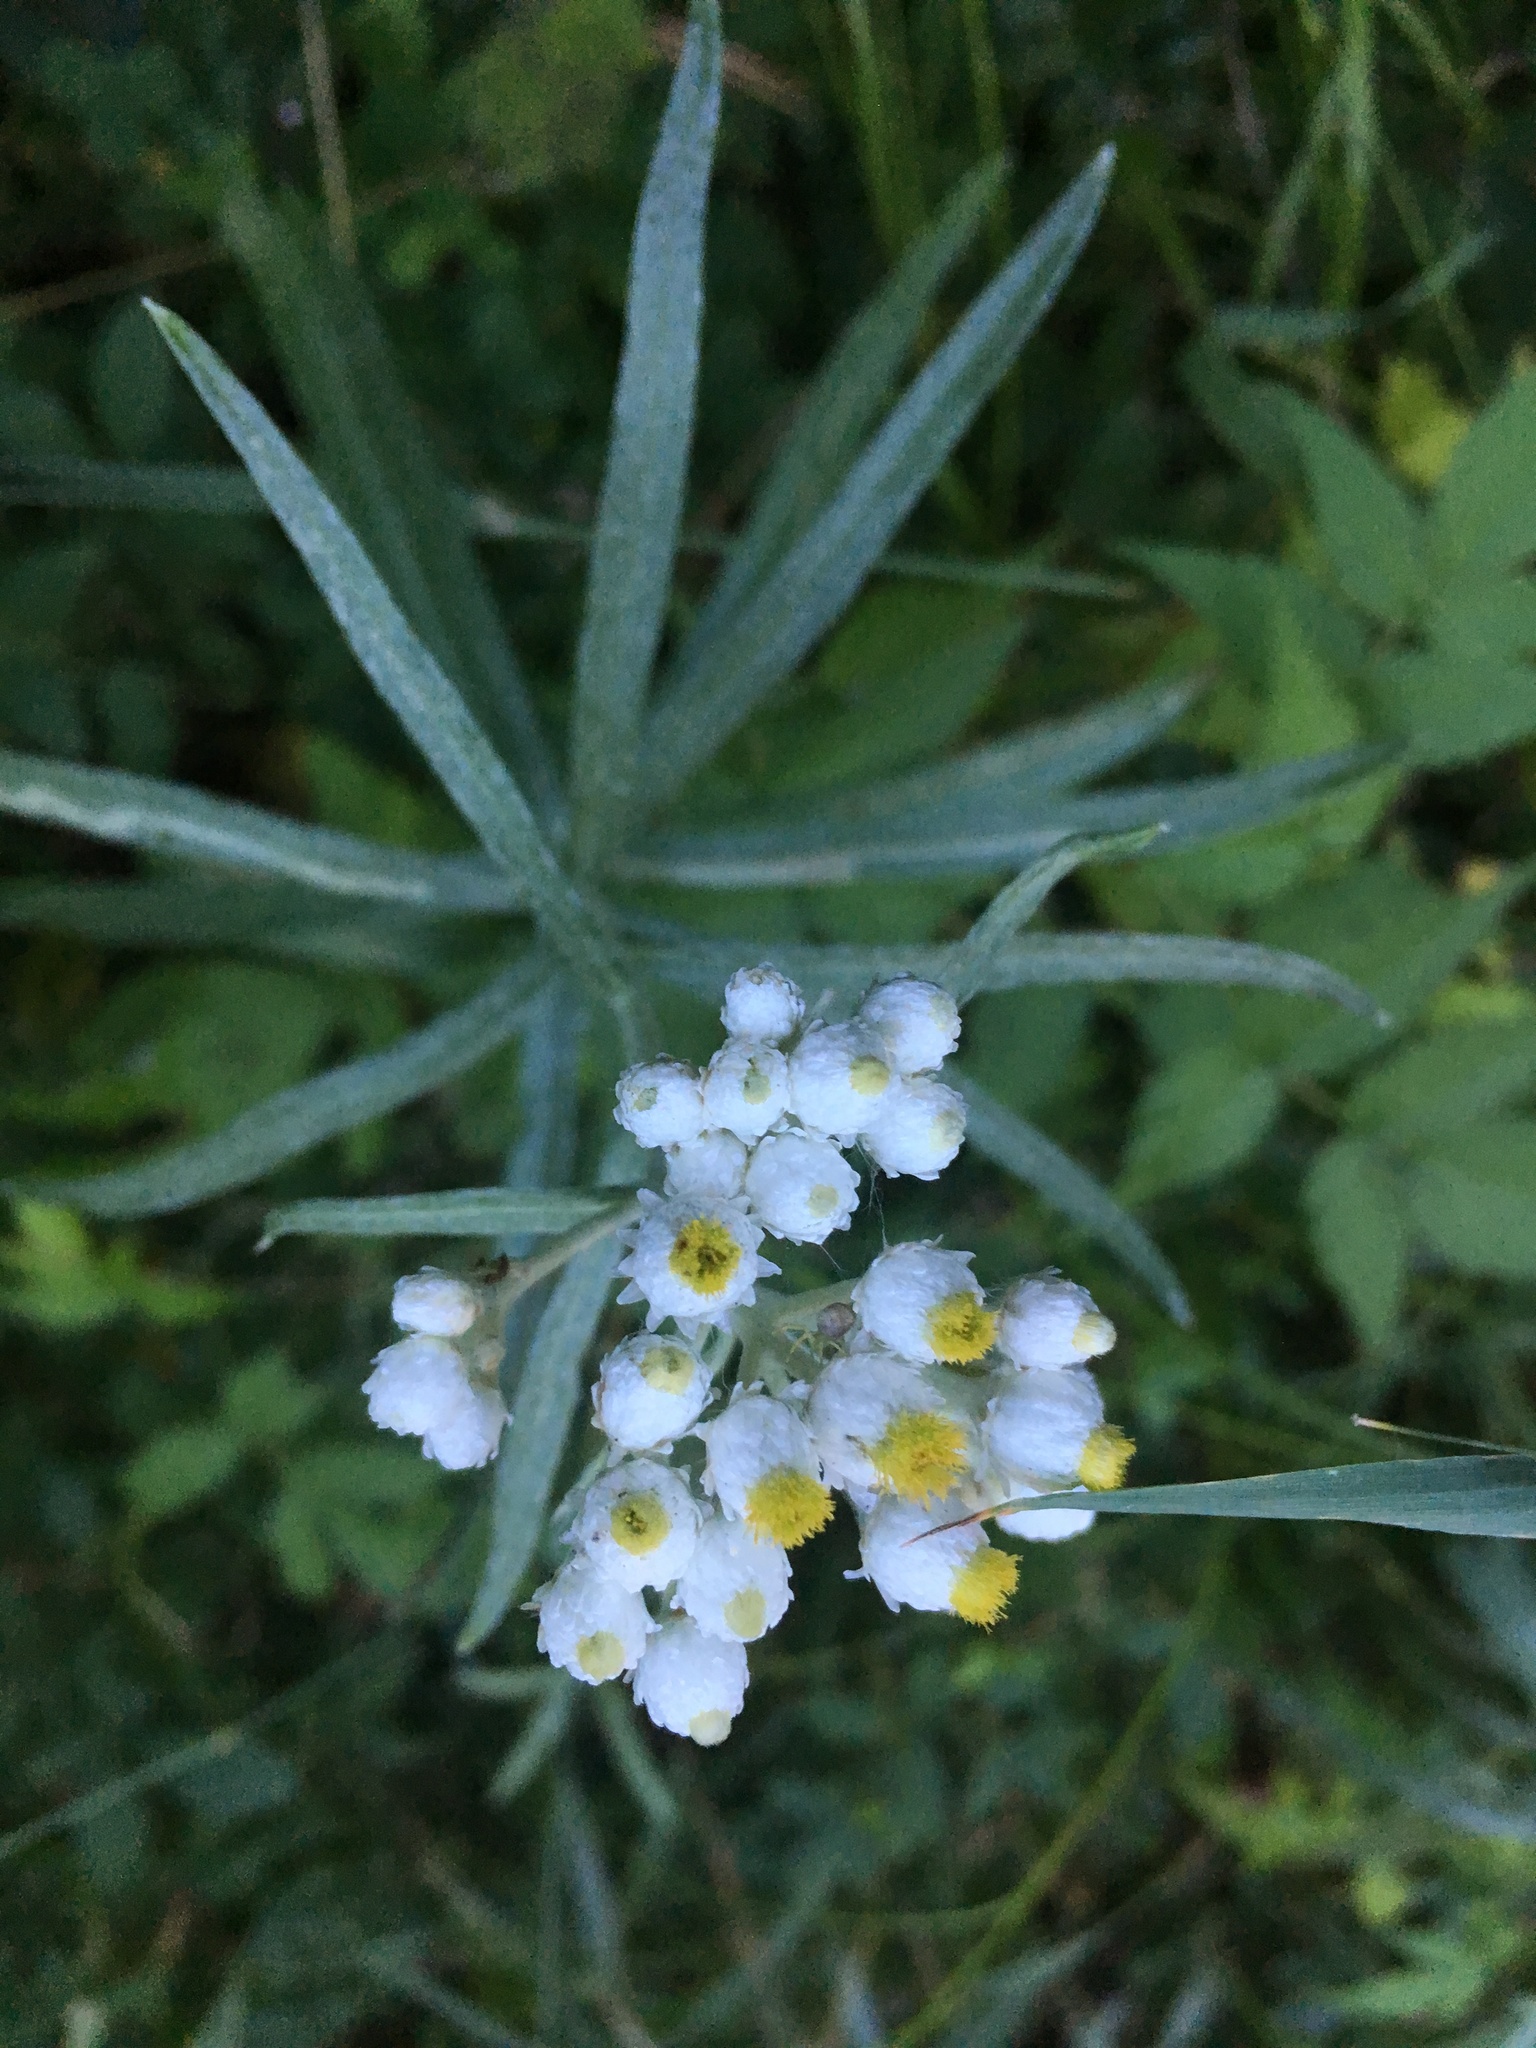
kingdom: Plantae
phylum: Tracheophyta
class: Magnoliopsida
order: Asterales
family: Asteraceae
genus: Anaphalis
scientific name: Anaphalis margaritacea
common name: Pearly everlasting
